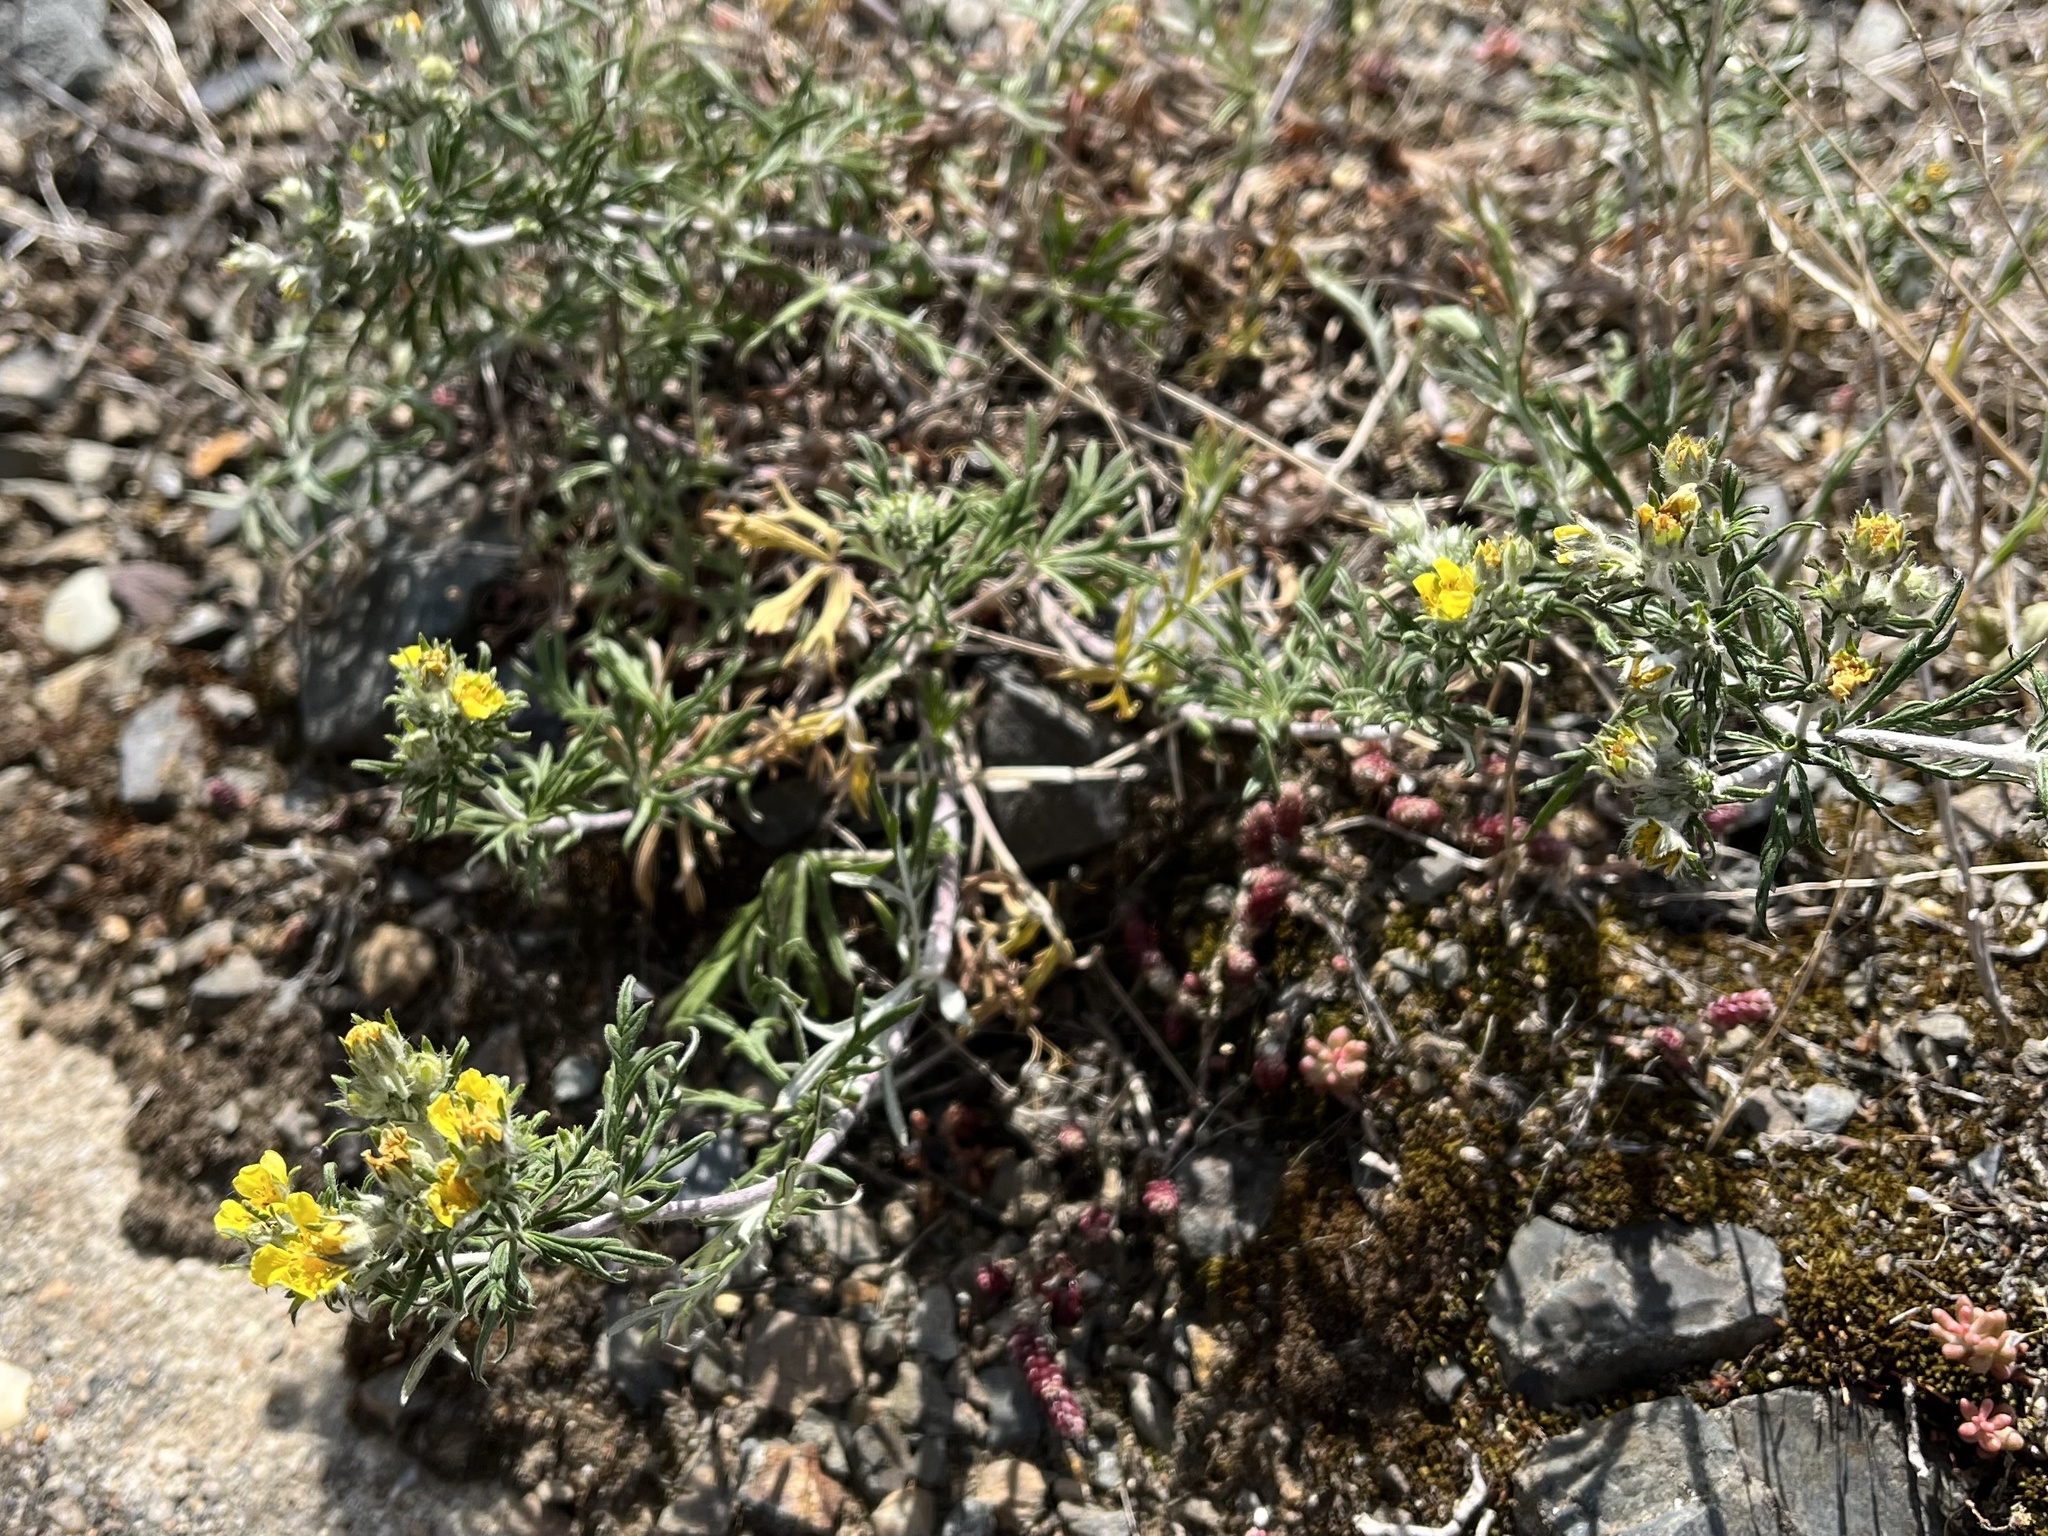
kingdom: Plantae
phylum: Tracheophyta
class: Magnoliopsida
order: Rosales
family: Rosaceae
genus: Potentilla
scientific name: Potentilla argentea
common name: Hoary cinquefoil
